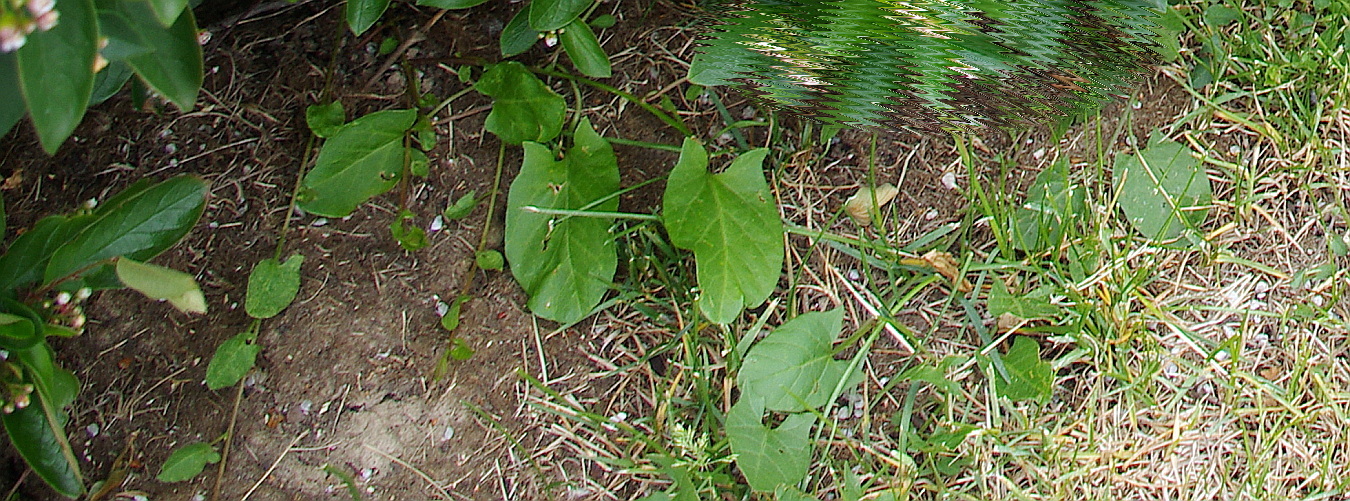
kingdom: Plantae
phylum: Tracheophyta
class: Magnoliopsida
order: Solanales
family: Convolvulaceae
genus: Convolvulus
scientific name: Convolvulus arvensis
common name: Field bindweed
